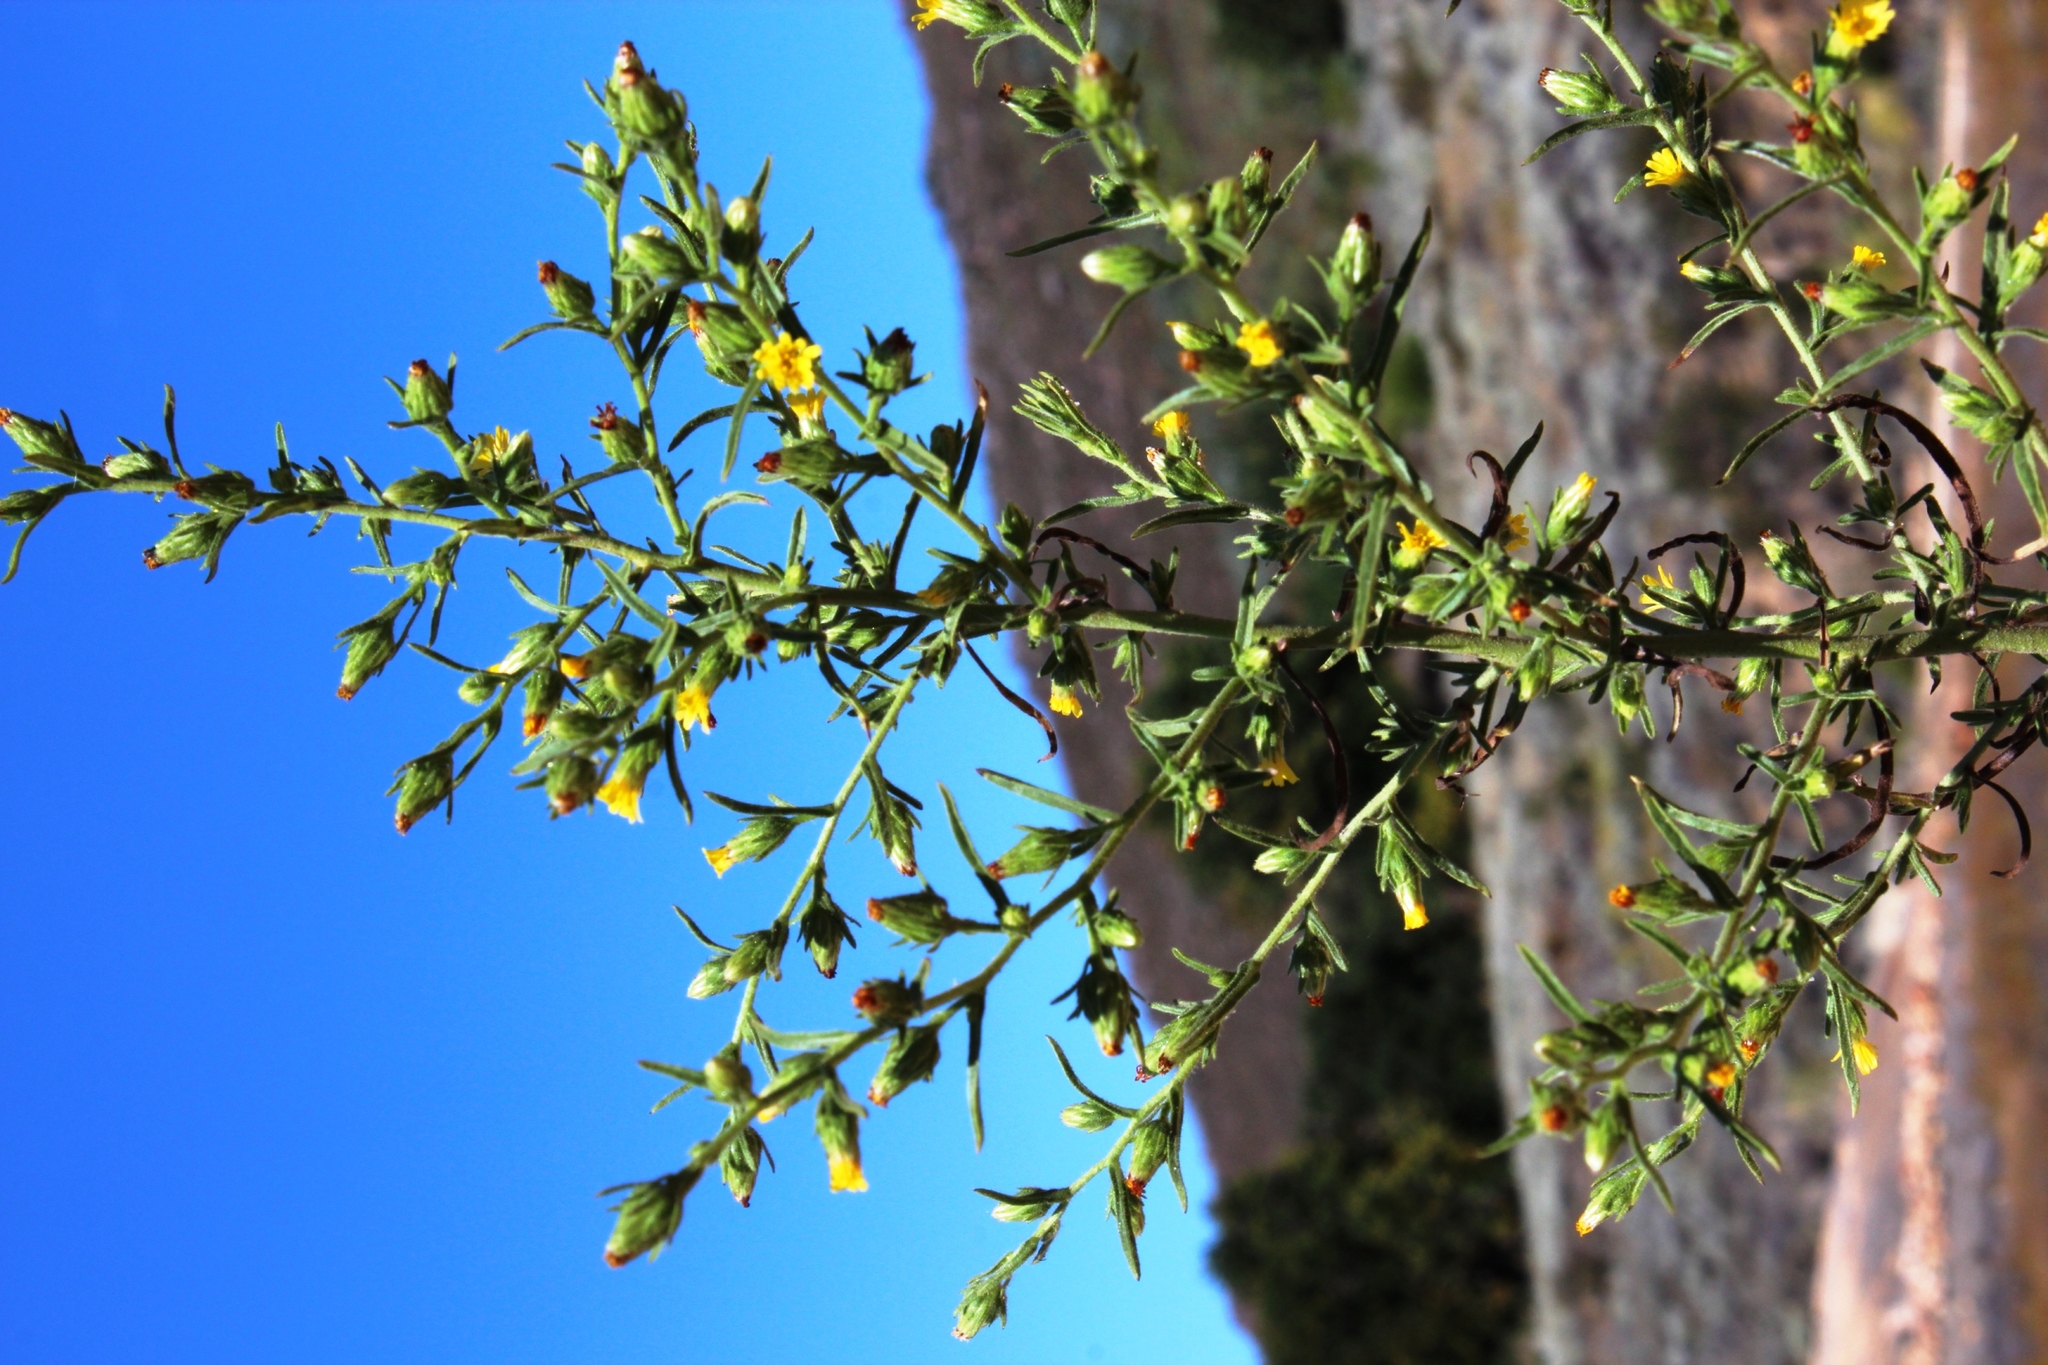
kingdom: Plantae
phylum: Tracheophyta
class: Magnoliopsida
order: Asterales
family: Asteraceae
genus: Dittrichia
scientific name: Dittrichia graveolens
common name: Stinking fleabane
